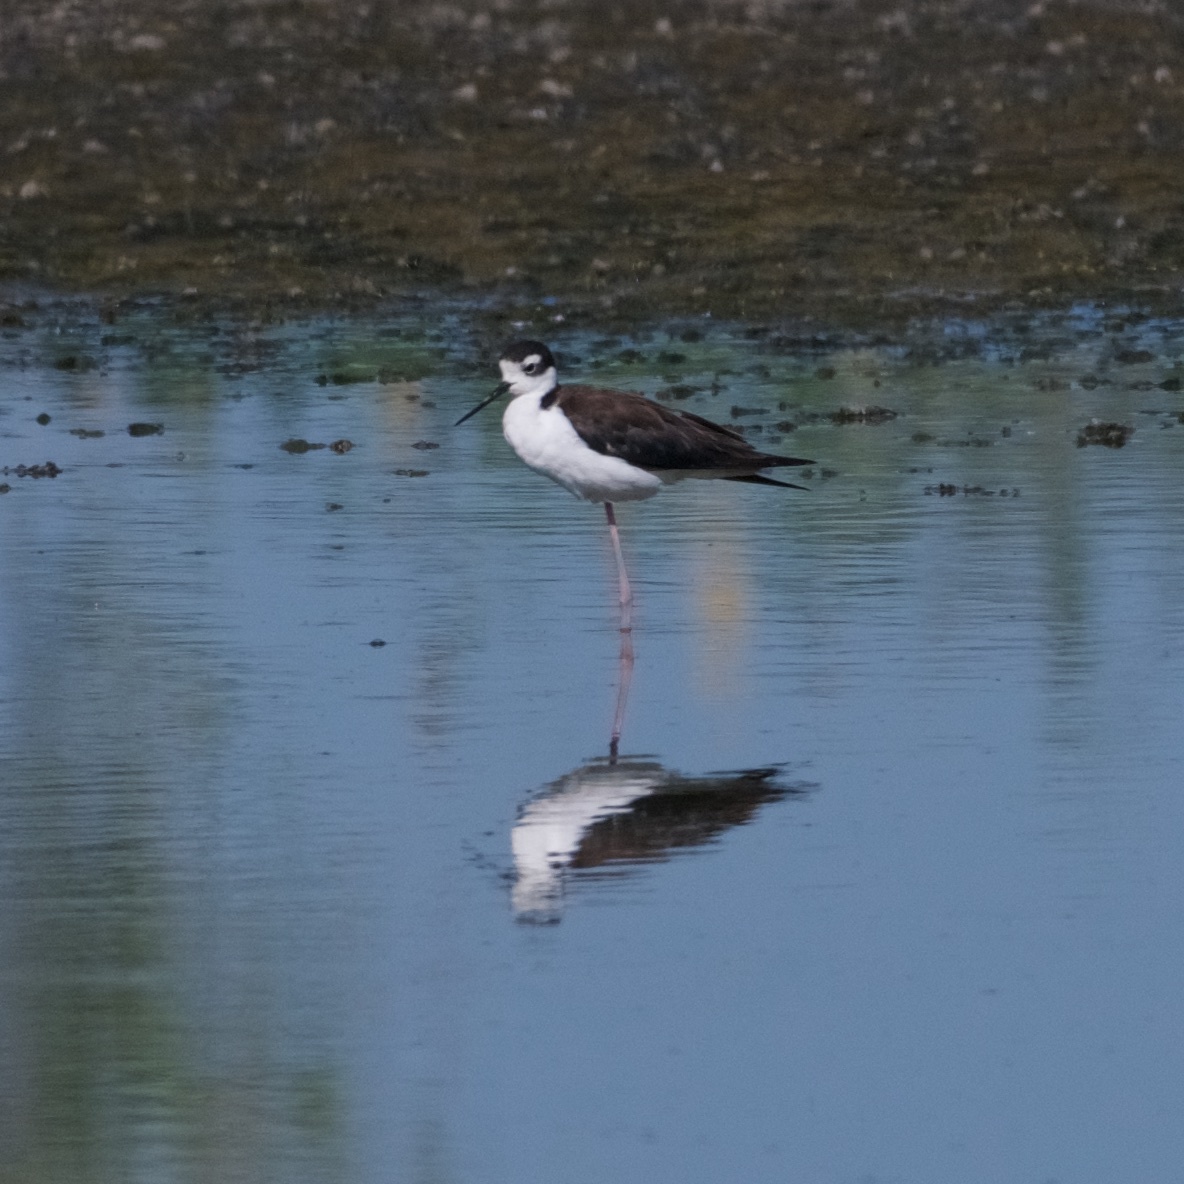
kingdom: Animalia
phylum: Chordata
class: Aves
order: Charadriiformes
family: Recurvirostridae
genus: Himantopus
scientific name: Himantopus mexicanus
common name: Black-necked stilt
